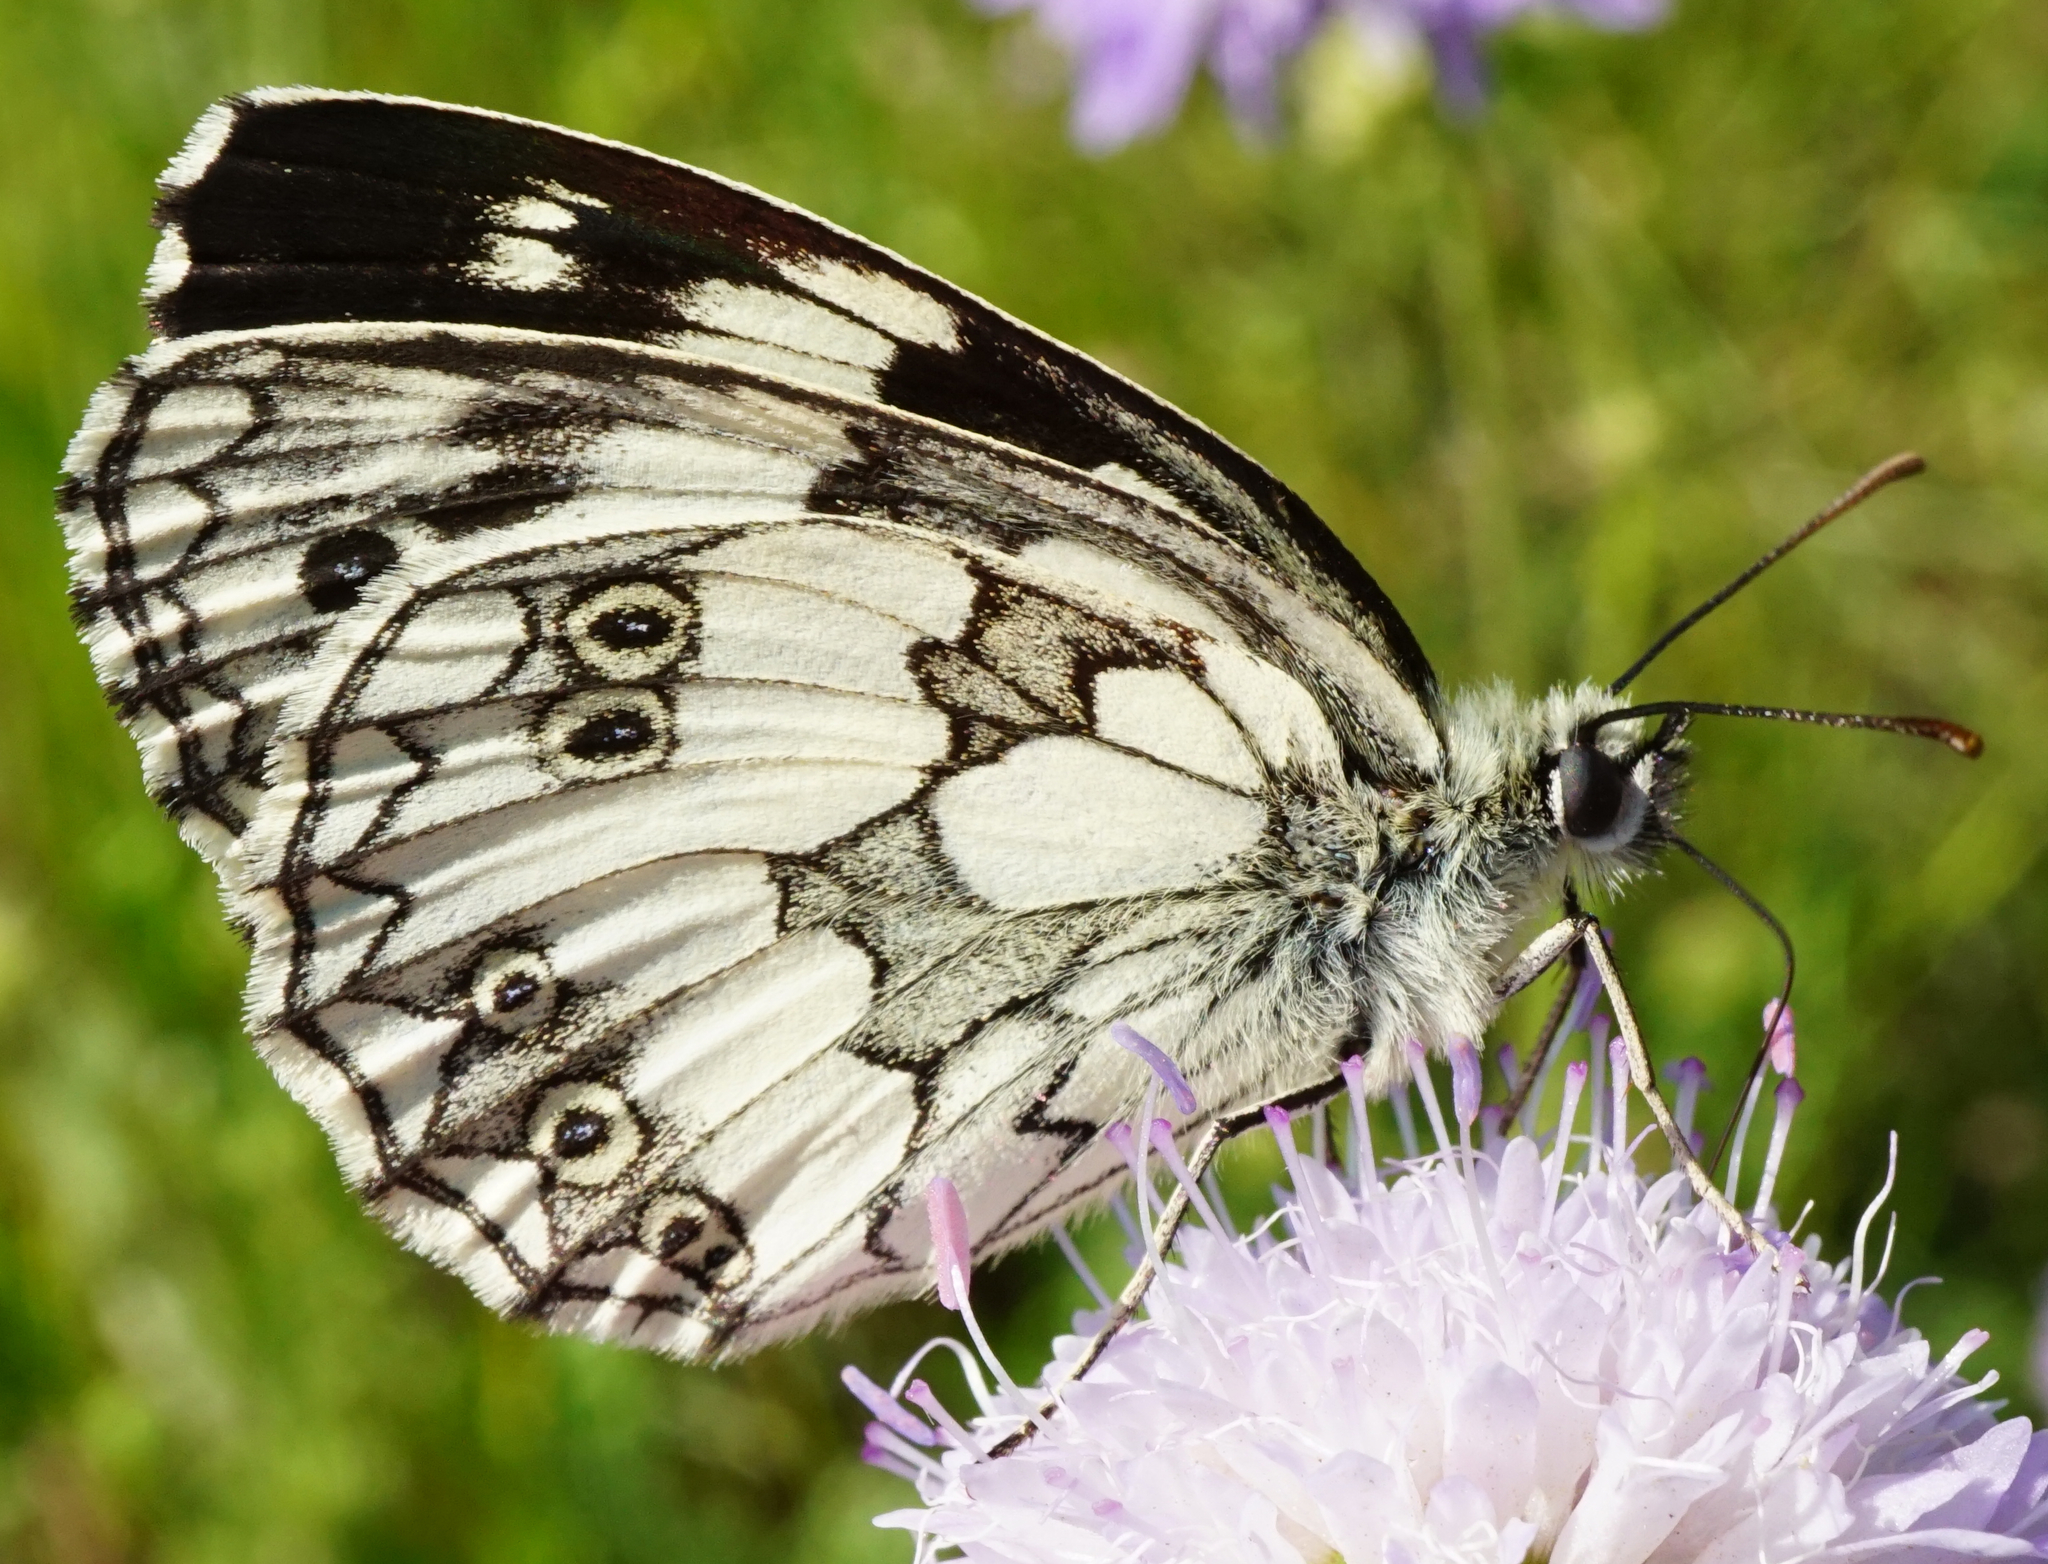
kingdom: Animalia
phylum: Arthropoda
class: Insecta
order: Lepidoptera
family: Nymphalidae
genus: Melanargia
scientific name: Melanargia galathea
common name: Marbled white
